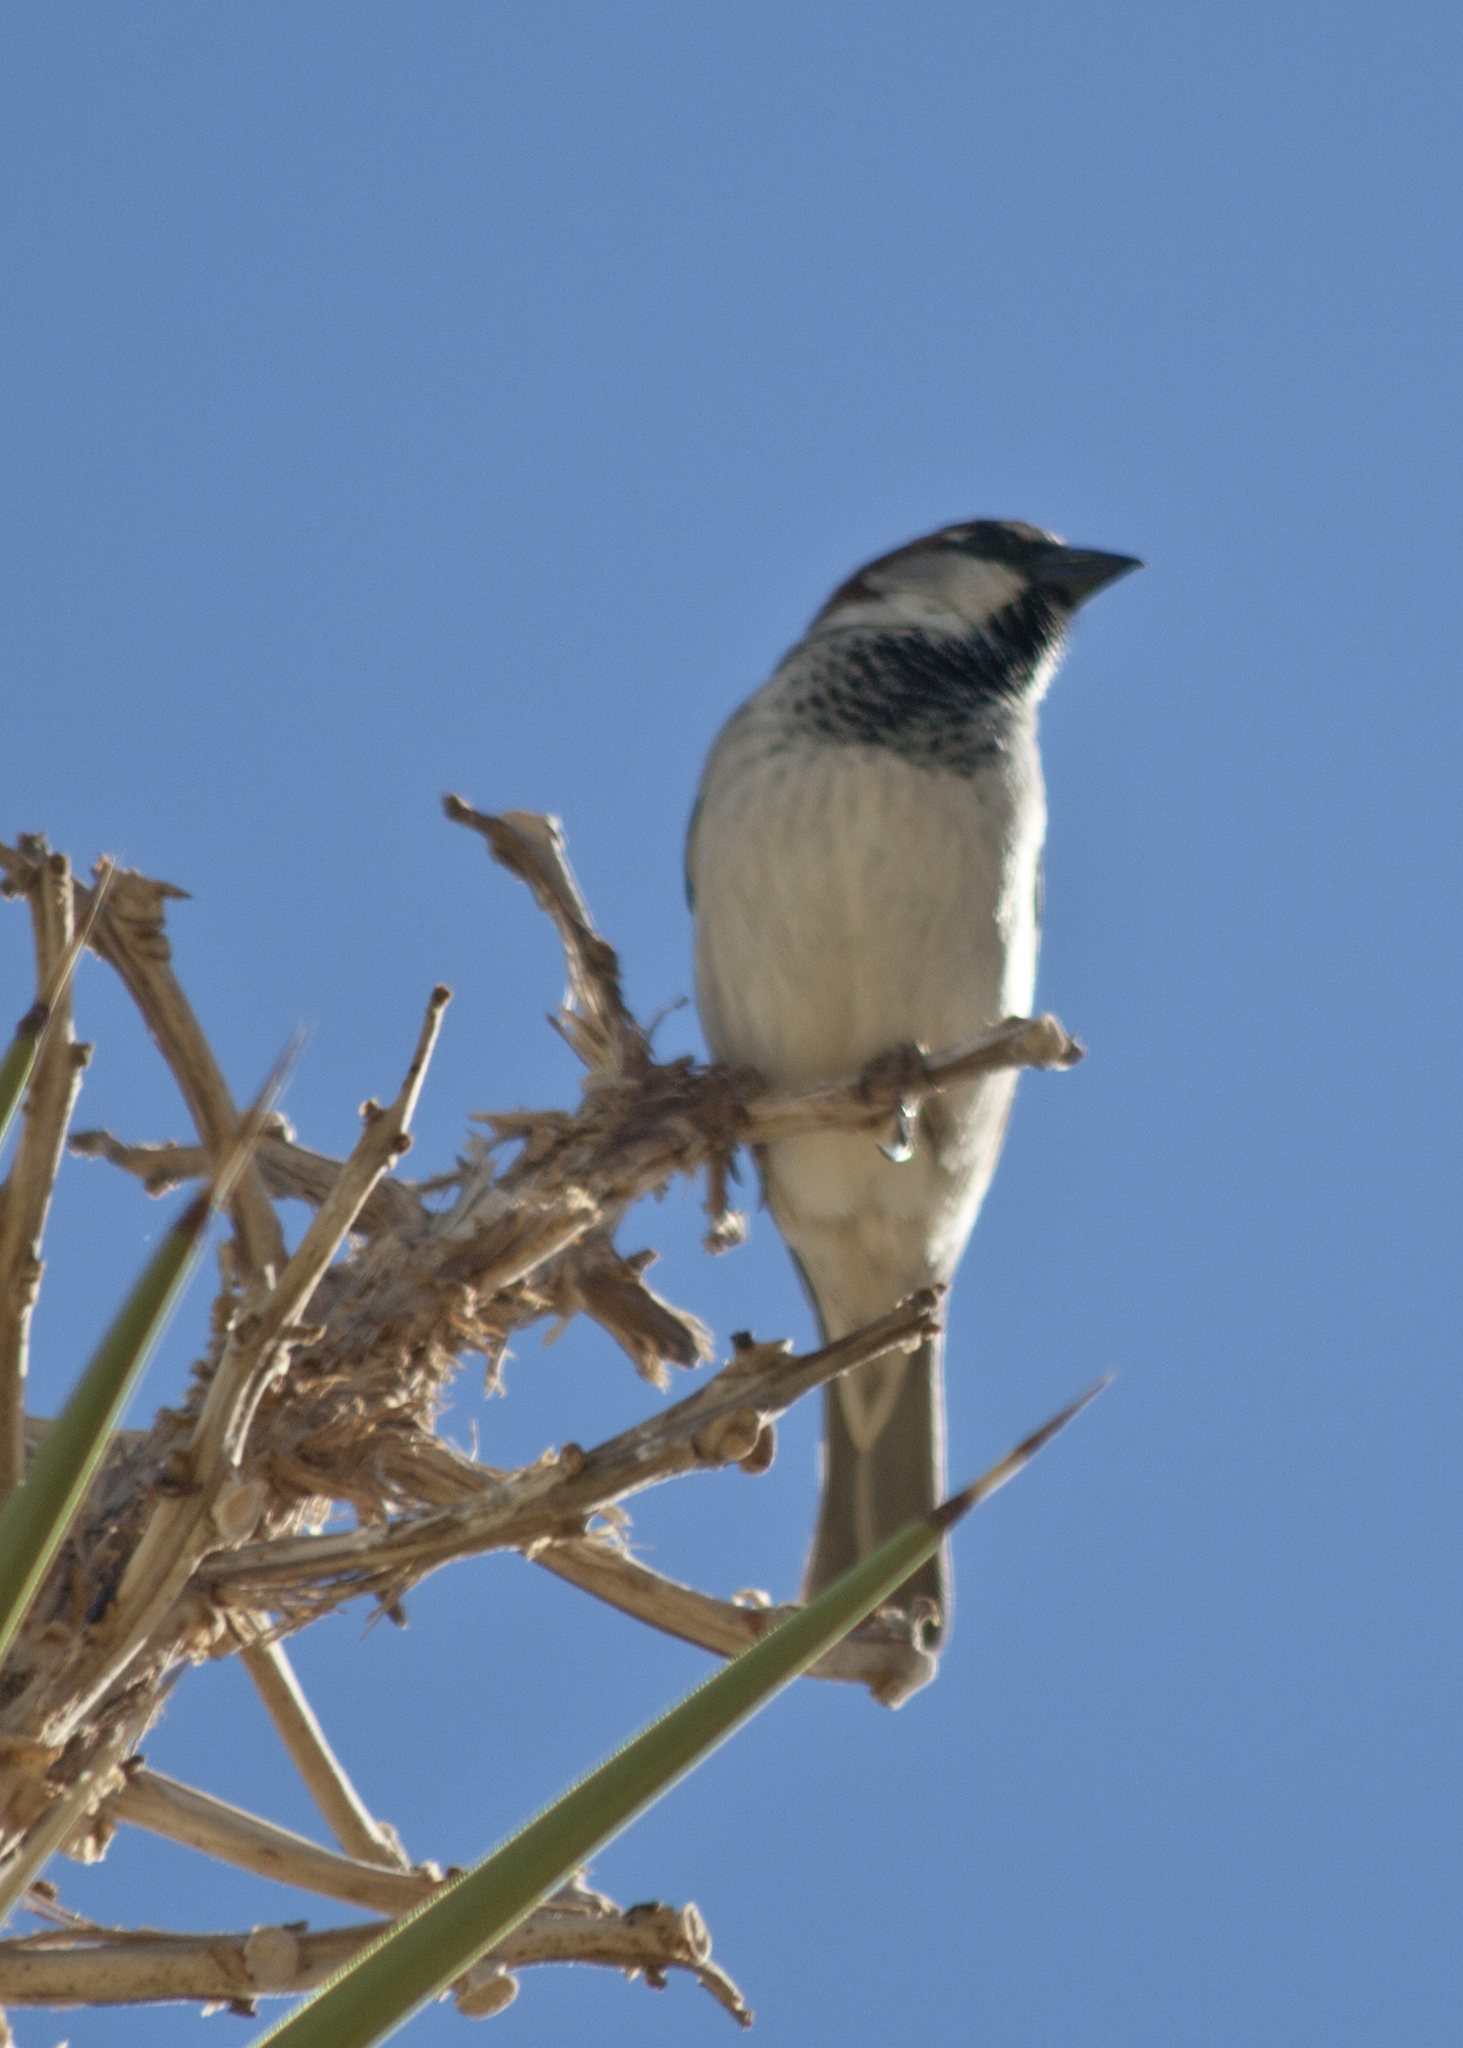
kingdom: Animalia
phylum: Chordata
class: Aves
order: Passeriformes
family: Passeridae
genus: Passer
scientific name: Passer domesticus
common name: House sparrow
